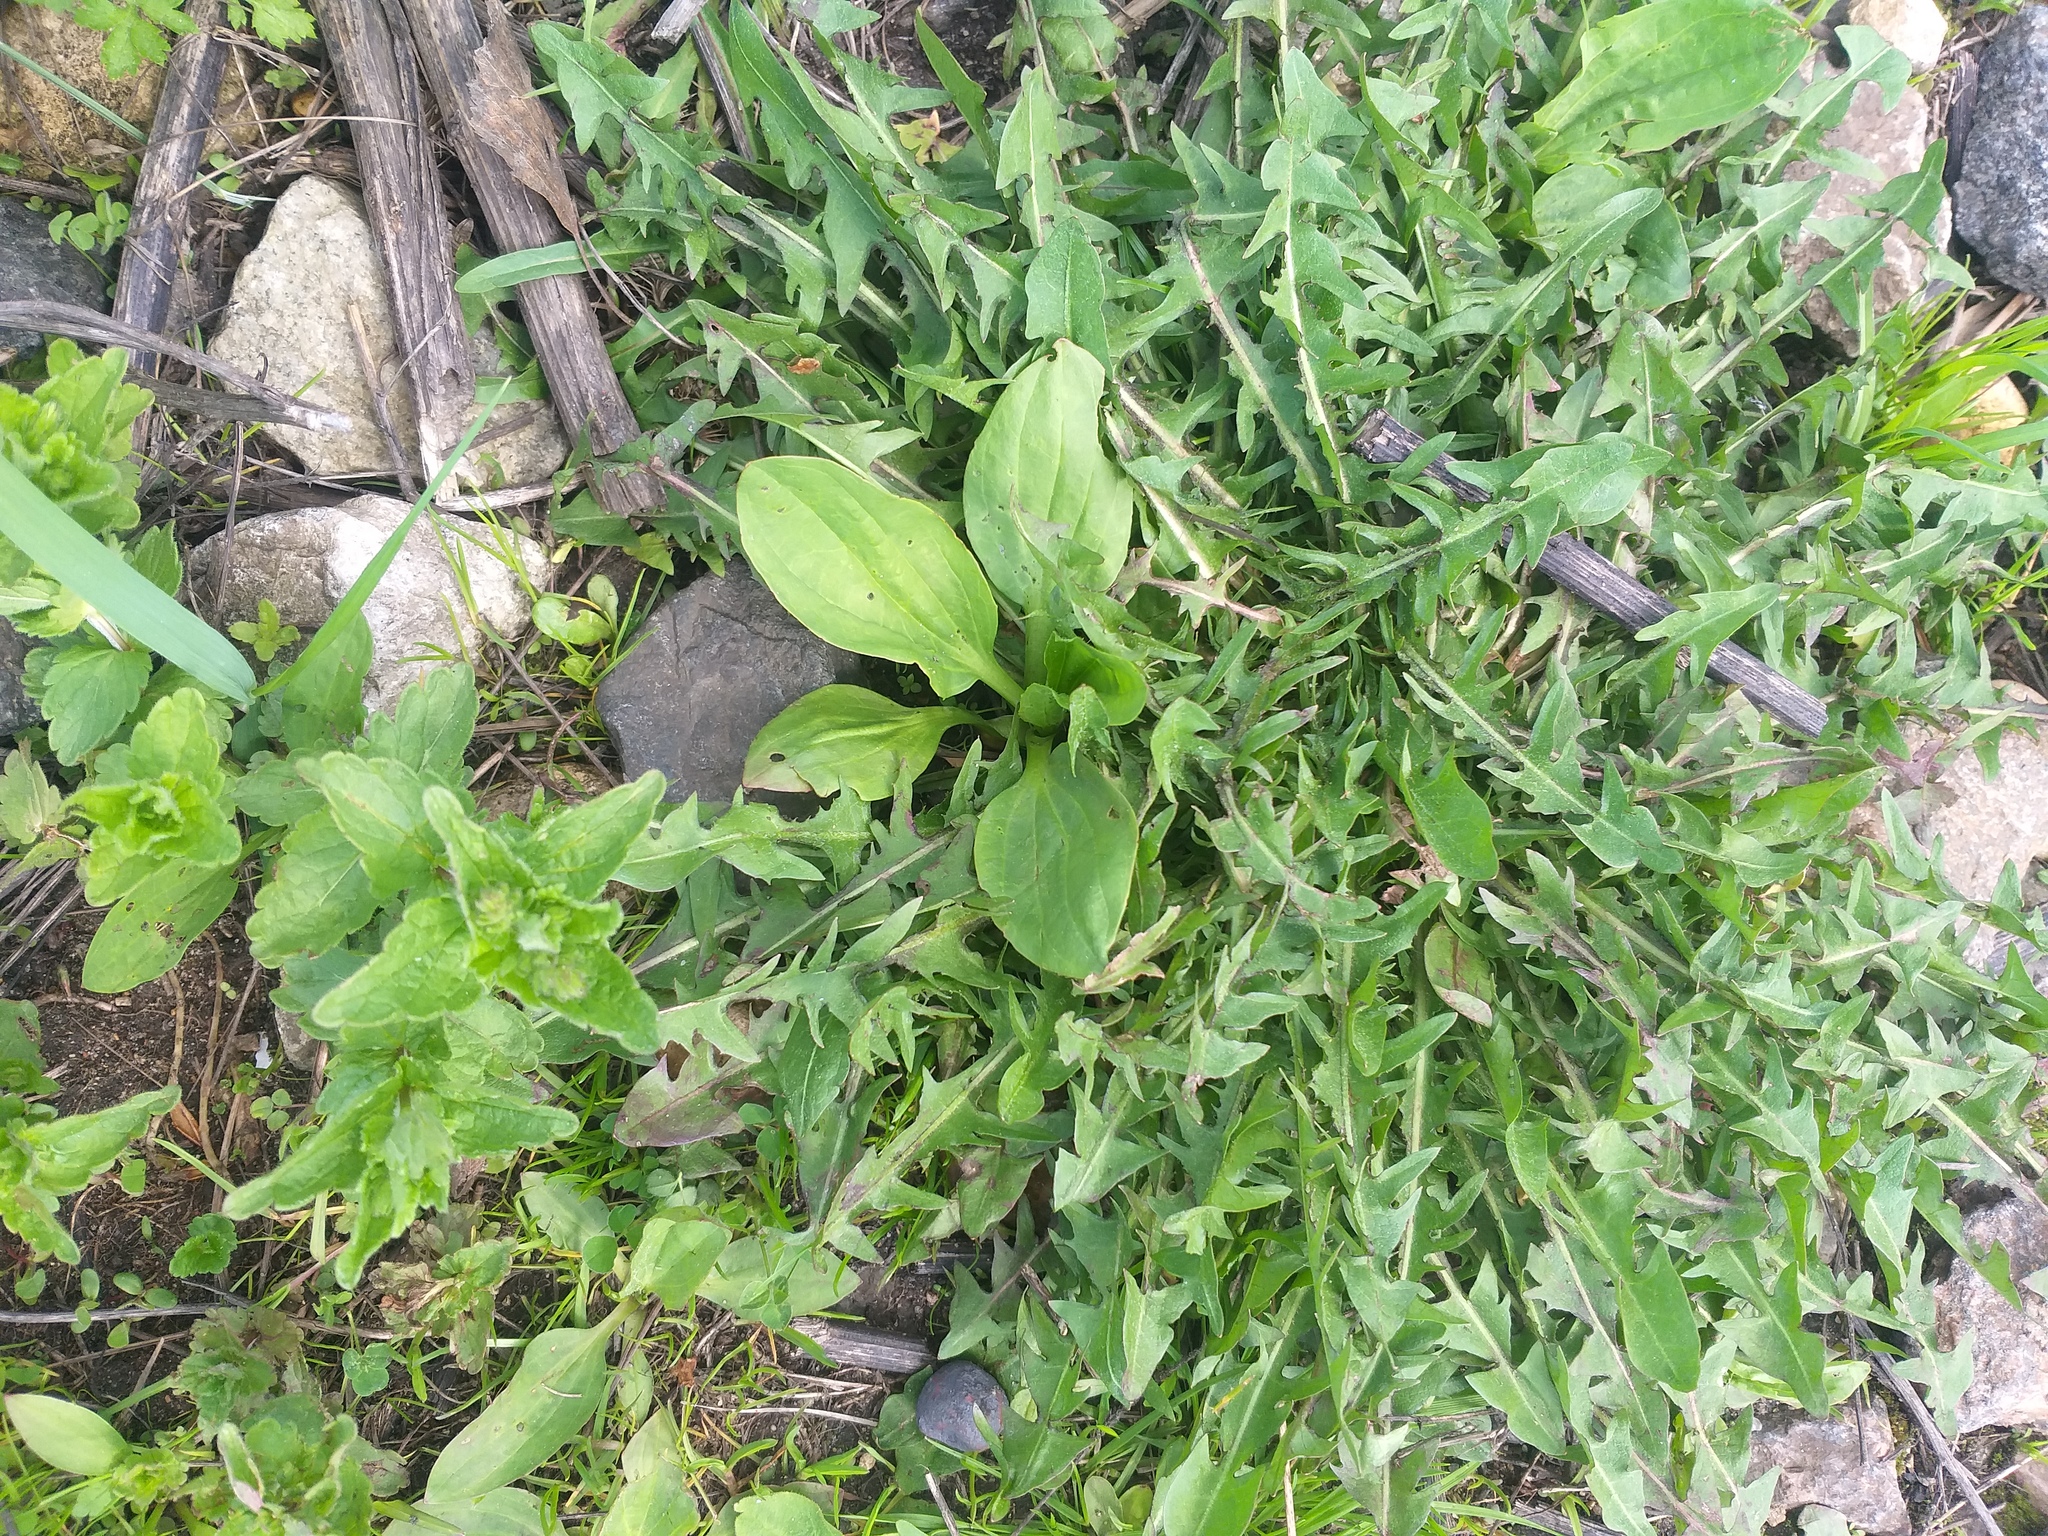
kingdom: Plantae
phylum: Tracheophyta
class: Magnoliopsida
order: Lamiales
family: Plantaginaceae
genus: Plantago
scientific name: Plantago major
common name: Common plantain
